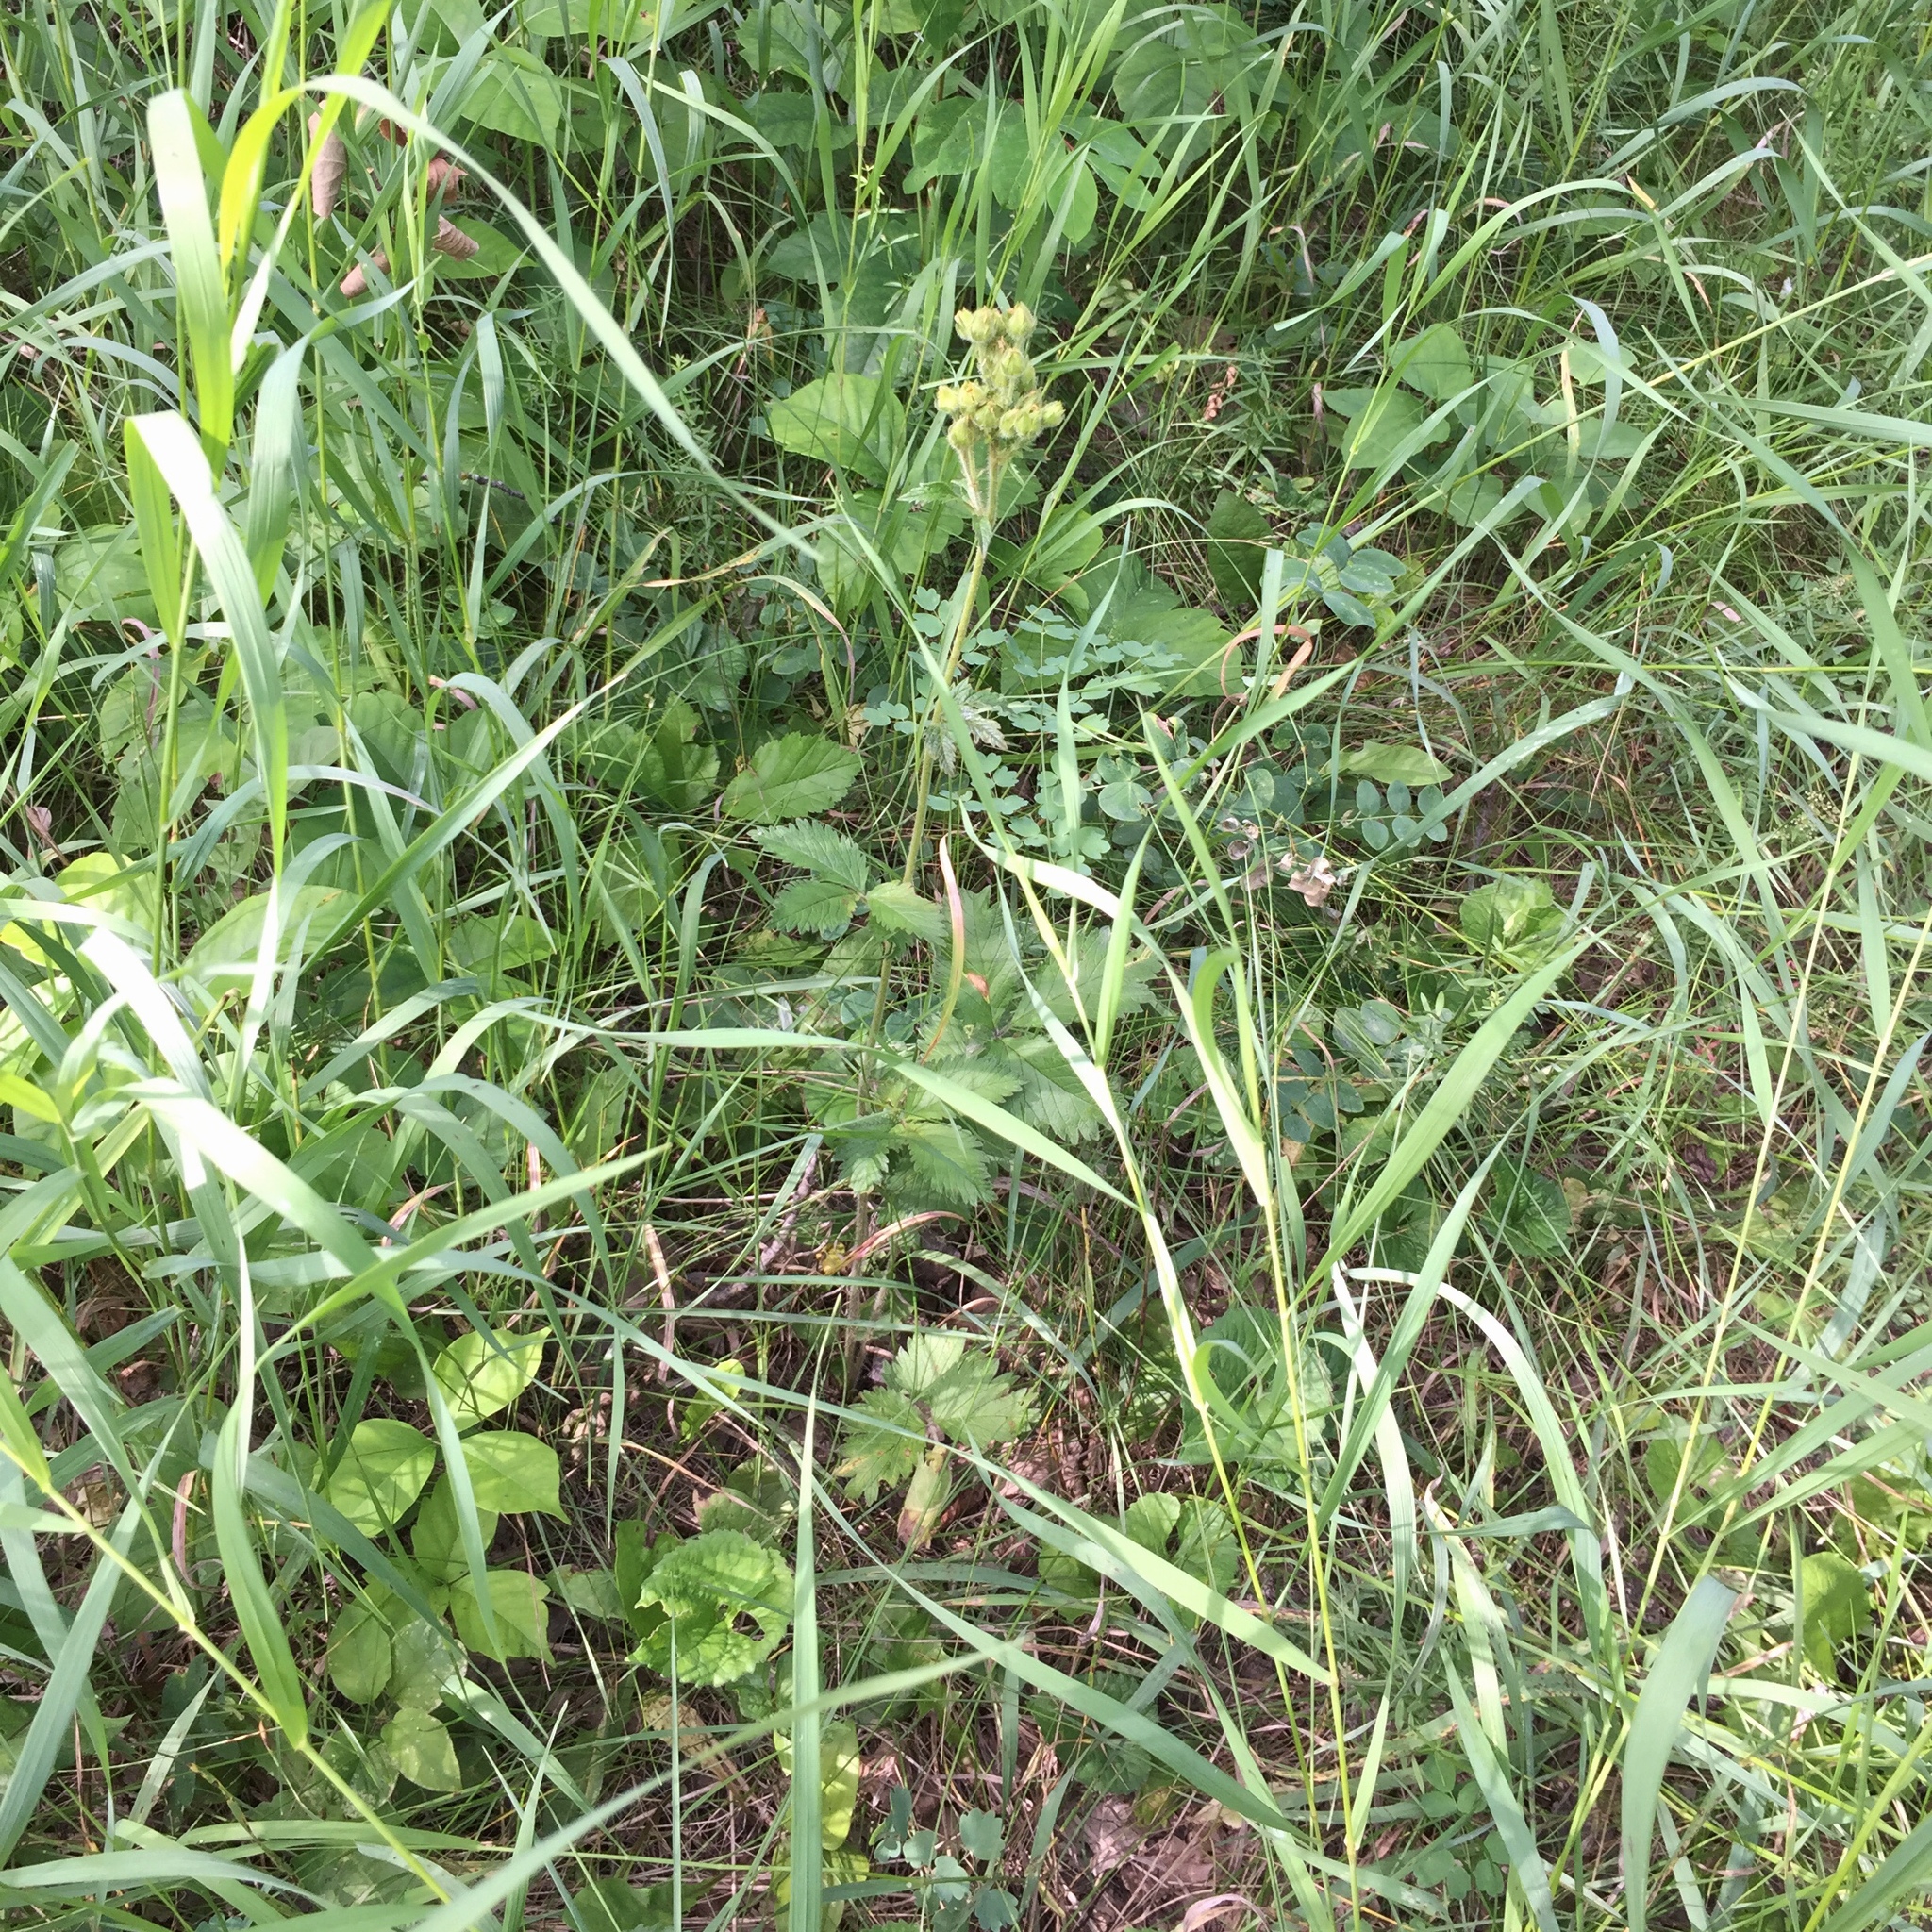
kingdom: Plantae
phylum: Tracheophyta
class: Magnoliopsida
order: Rosales
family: Rosaceae
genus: Drymocallis
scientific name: Drymocallis arguta
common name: Tall cinquefoil
